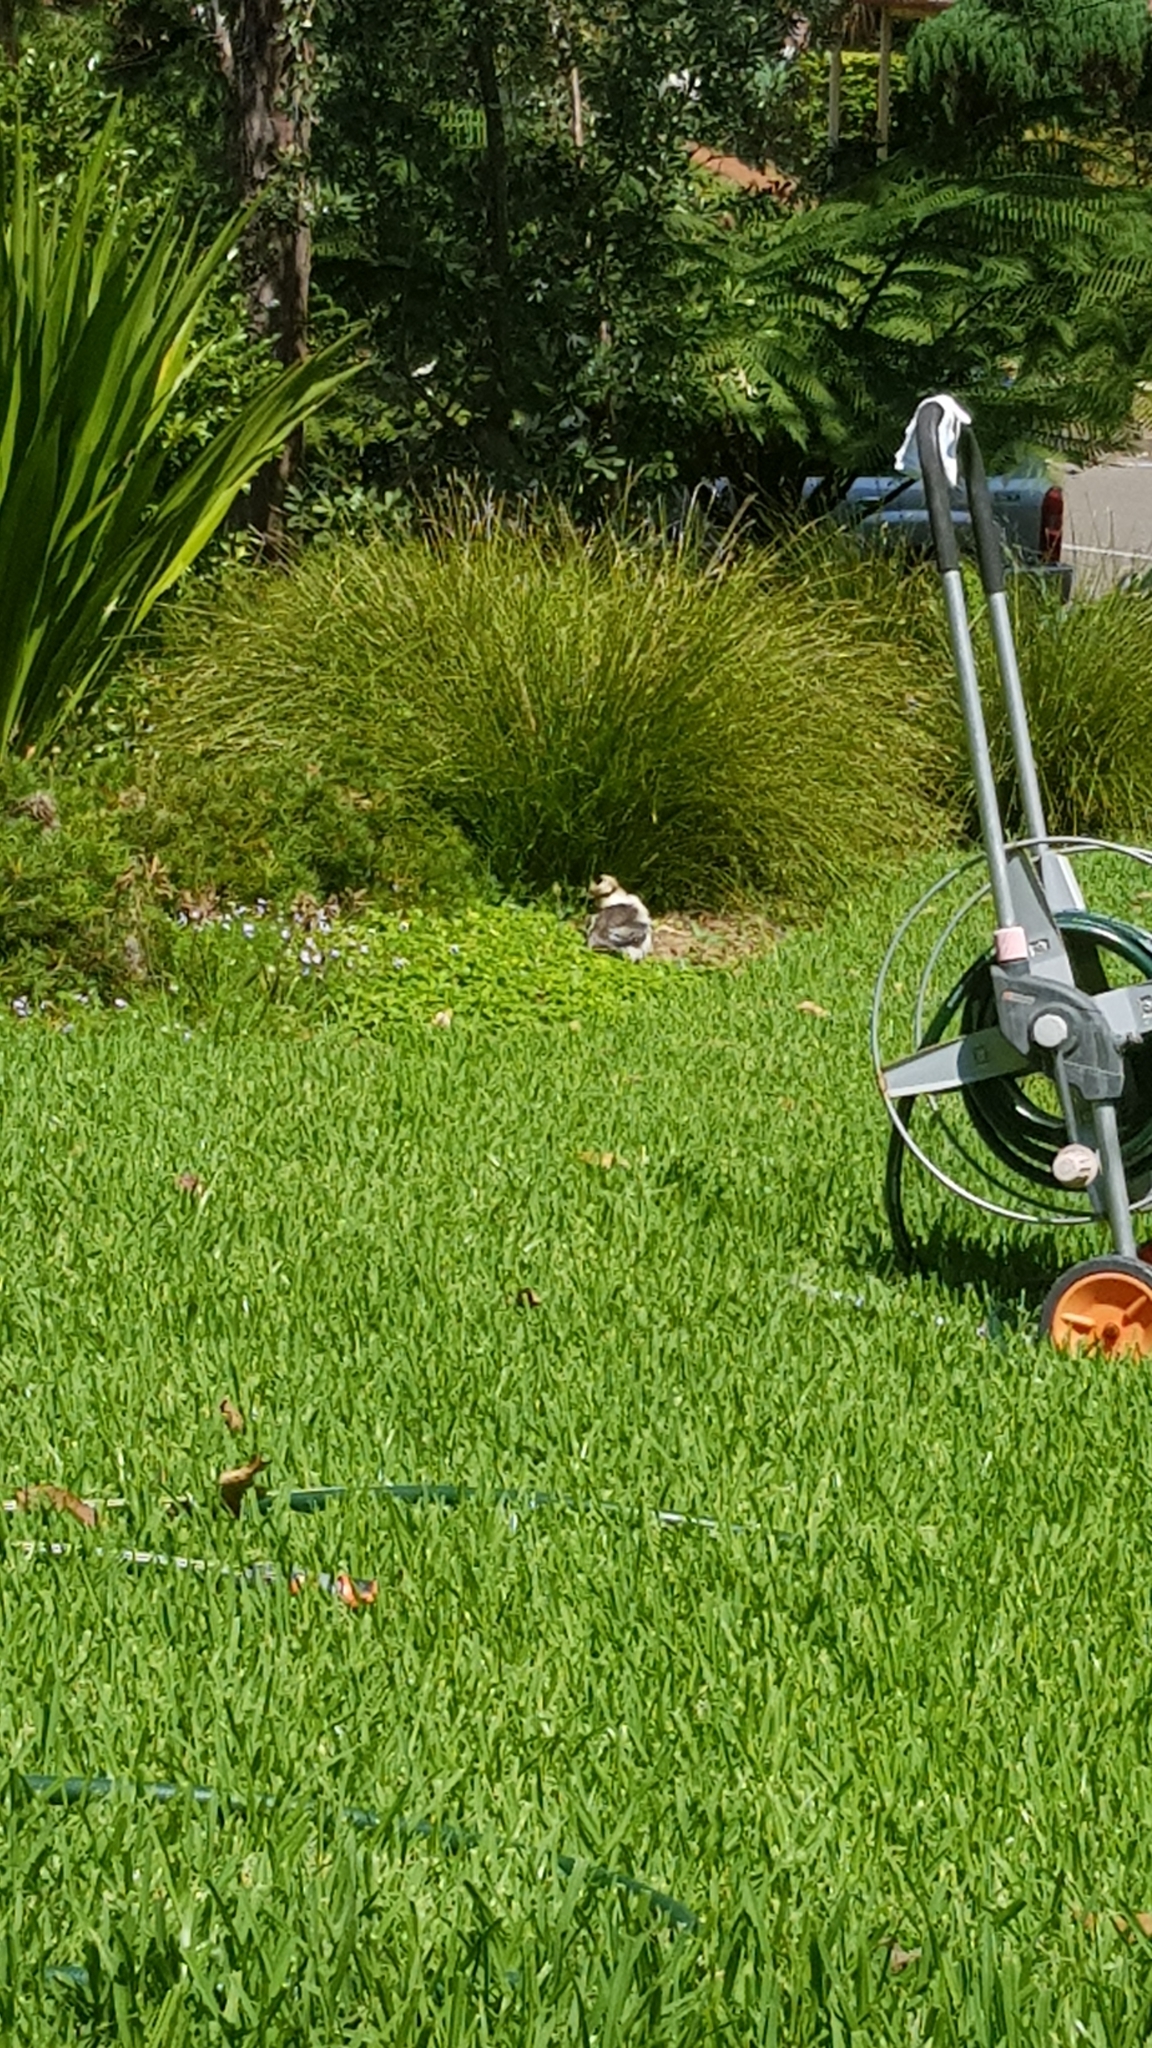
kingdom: Animalia
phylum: Chordata
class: Aves
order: Coraciiformes
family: Alcedinidae
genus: Dacelo
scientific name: Dacelo novaeguineae
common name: Laughing kookaburra
